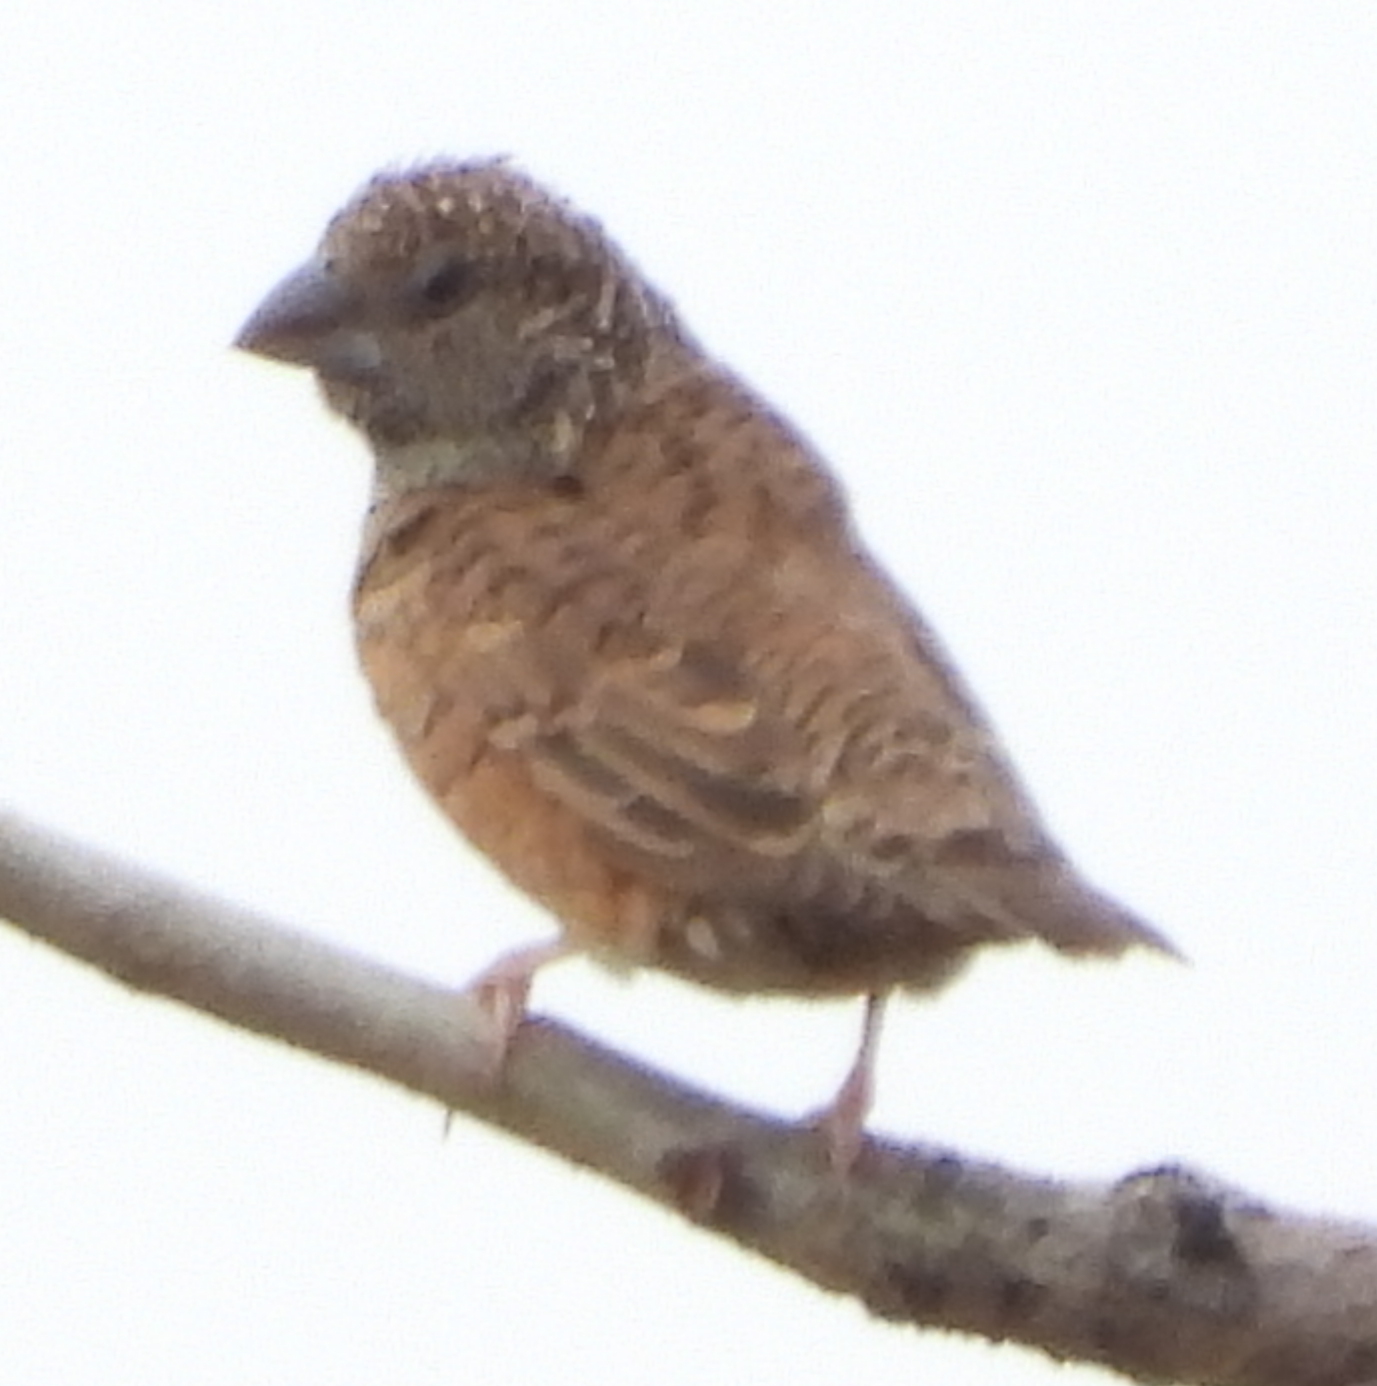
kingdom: Animalia
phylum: Chordata
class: Aves
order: Passeriformes
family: Estrildidae
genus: Amadina
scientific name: Amadina fasciata
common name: Cut-throat finch
